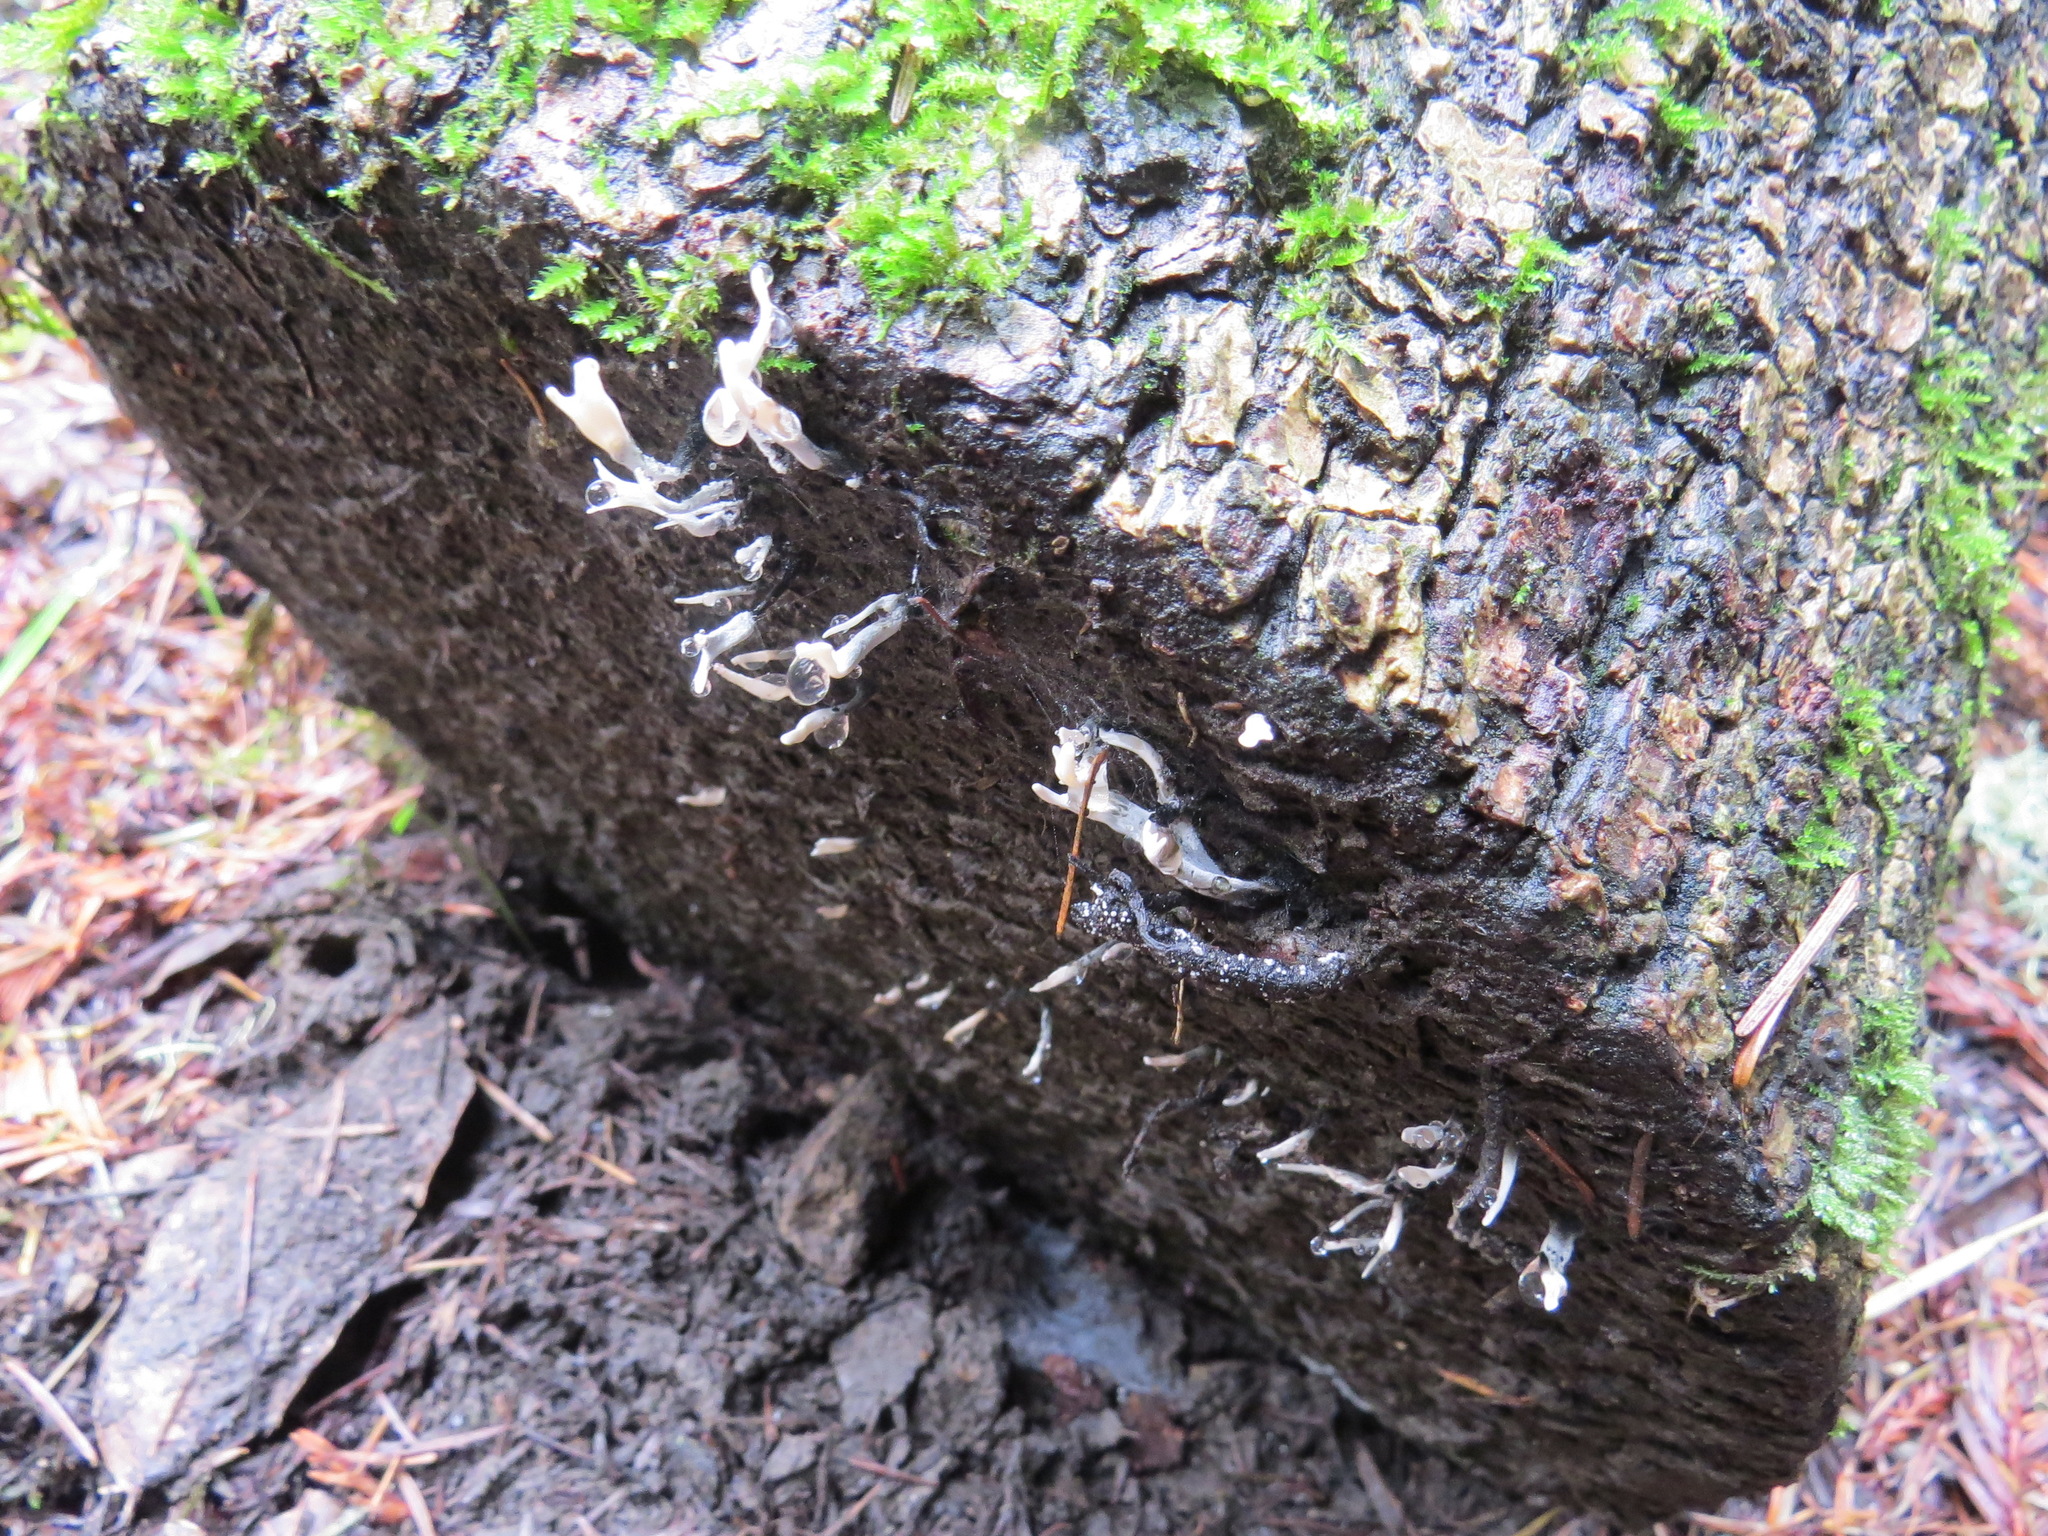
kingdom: Fungi
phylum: Ascomycota
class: Sordariomycetes
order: Xylariales
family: Xylariaceae
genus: Xylaria
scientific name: Xylaria hypoxylon
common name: Candle-snuff fungus
